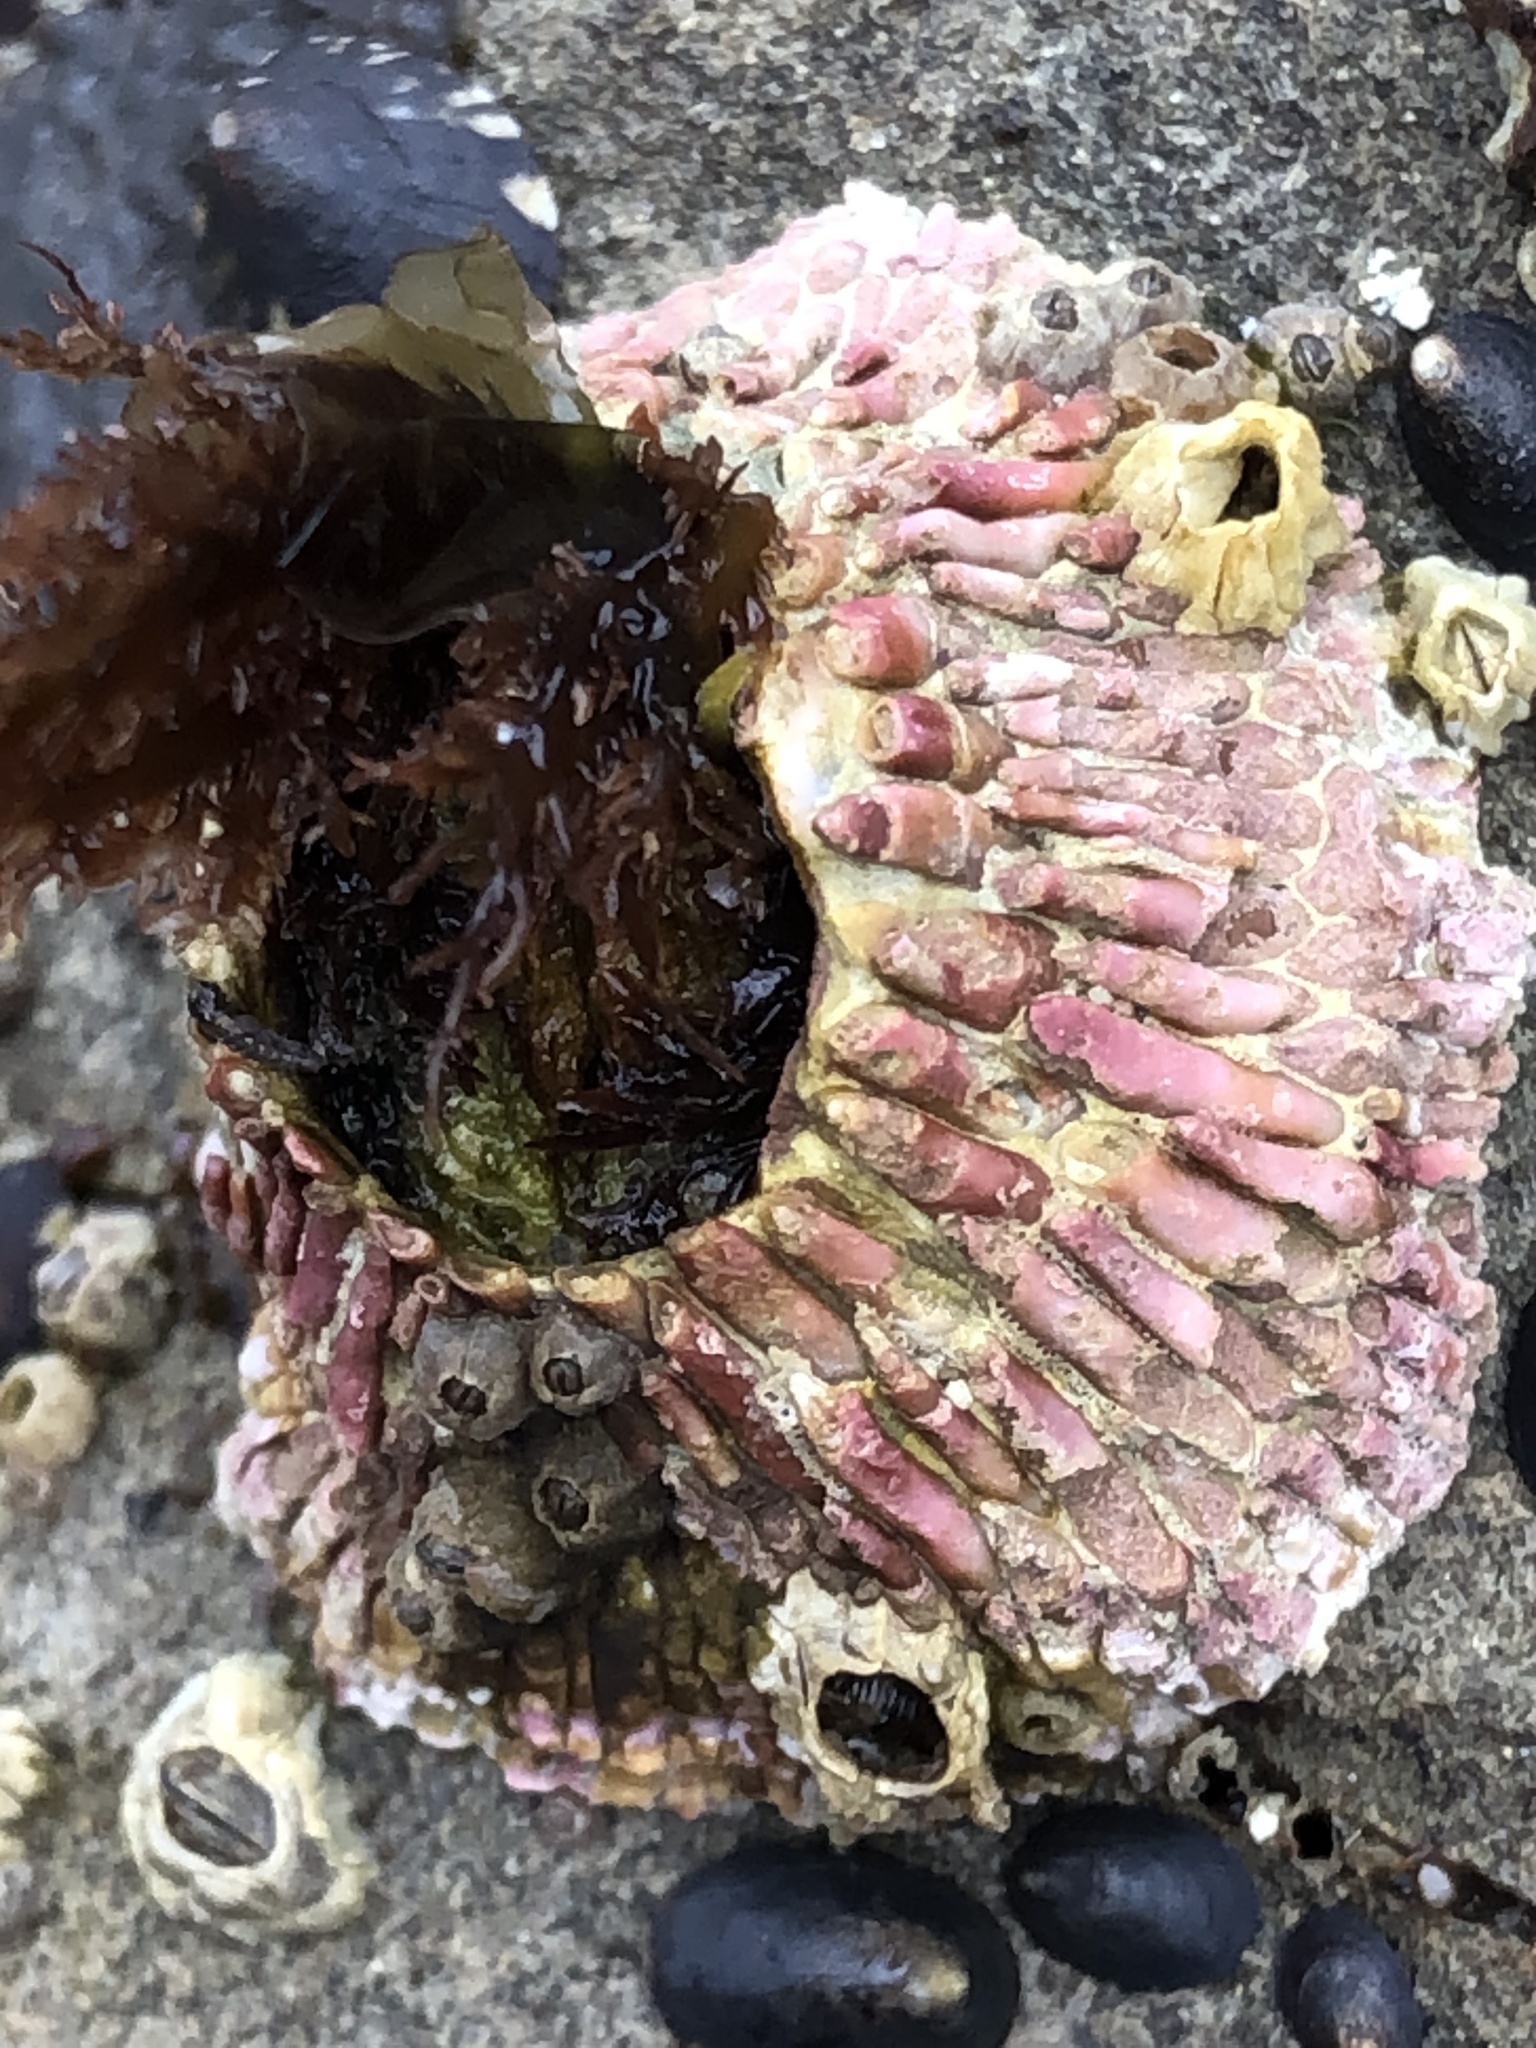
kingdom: Animalia
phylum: Arthropoda
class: Maxillopoda
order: Sessilia
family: Tetraclitidae
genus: Tetraclita
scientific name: Tetraclita rubescens
